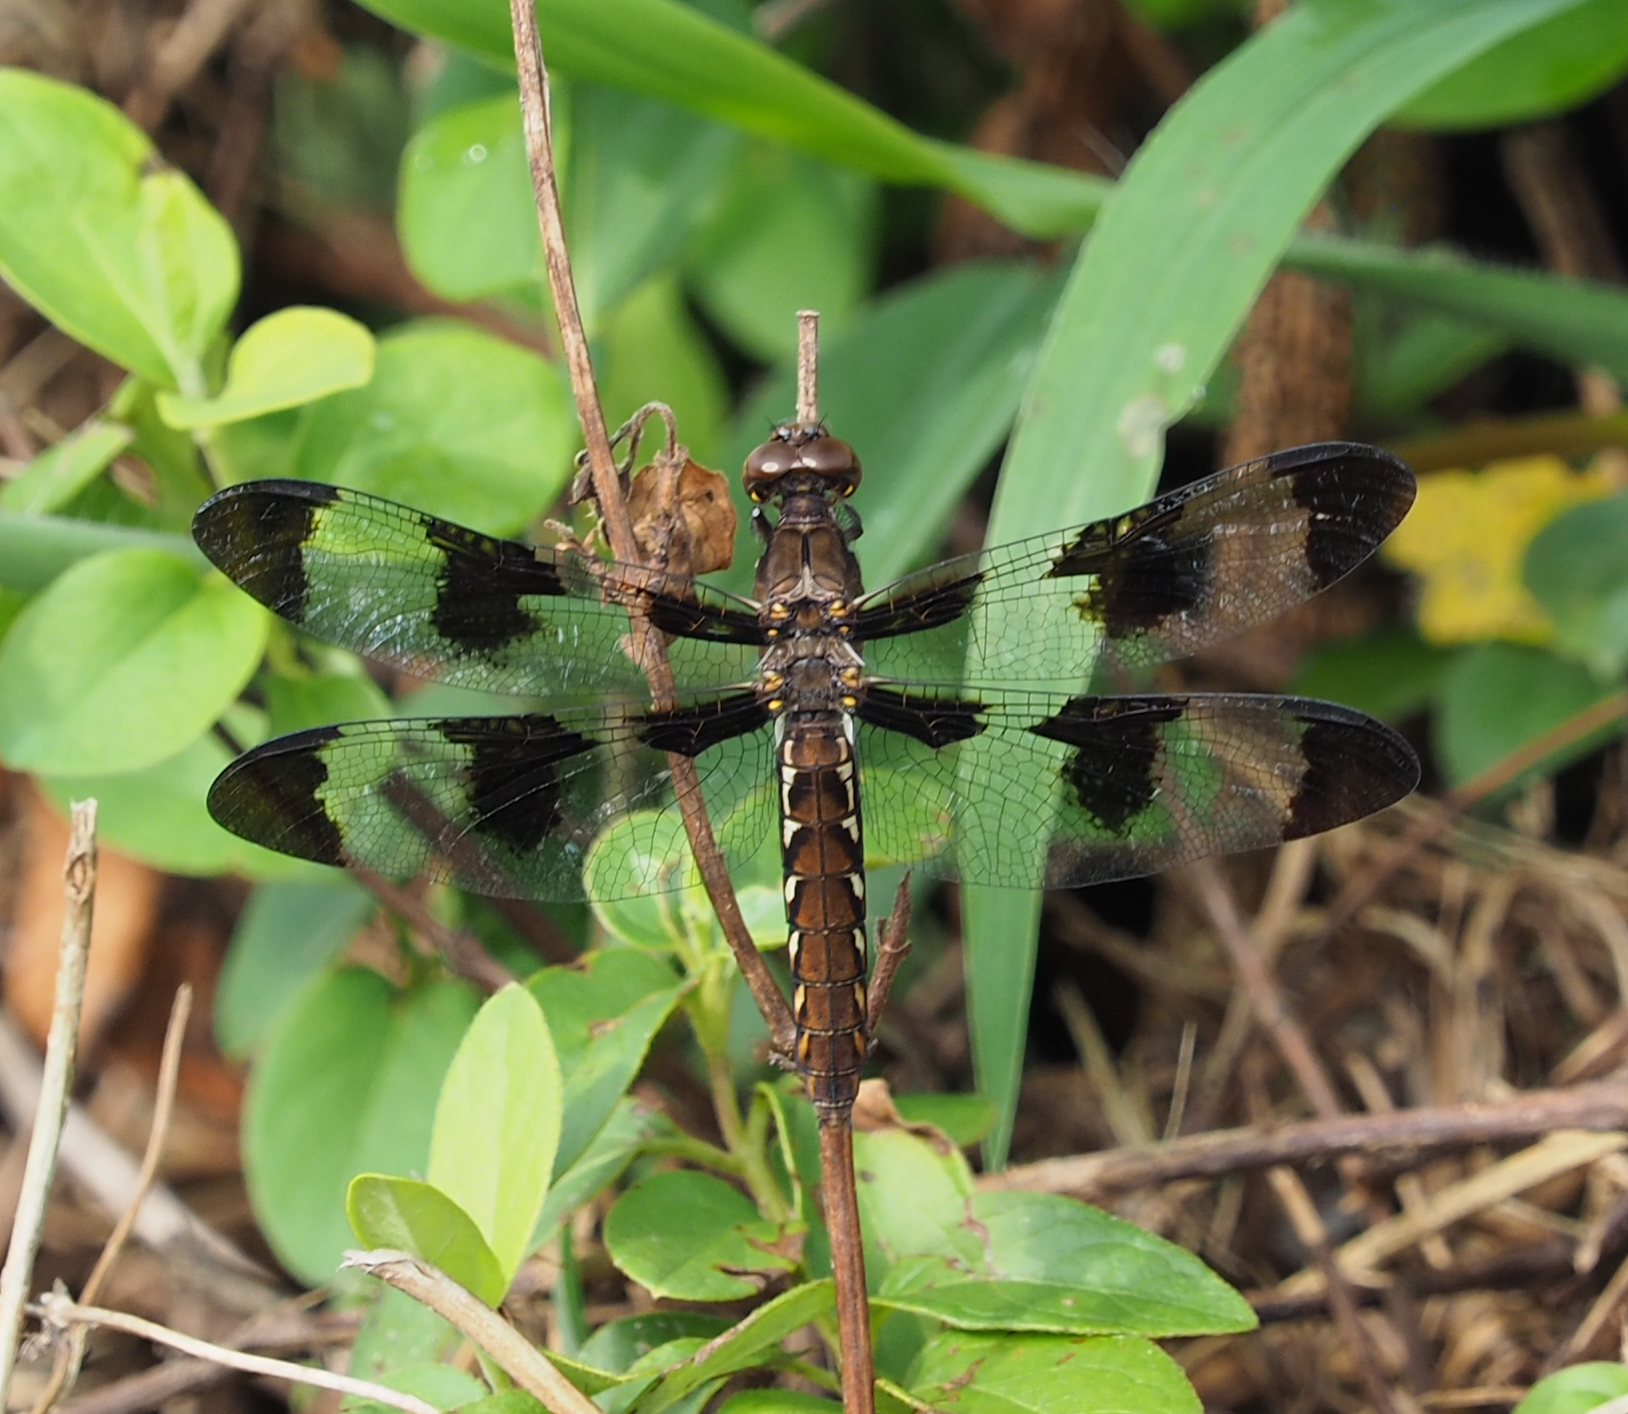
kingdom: Animalia
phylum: Arthropoda
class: Insecta
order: Odonata
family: Libellulidae
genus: Plathemis
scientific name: Plathemis lydia
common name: Common whitetail
